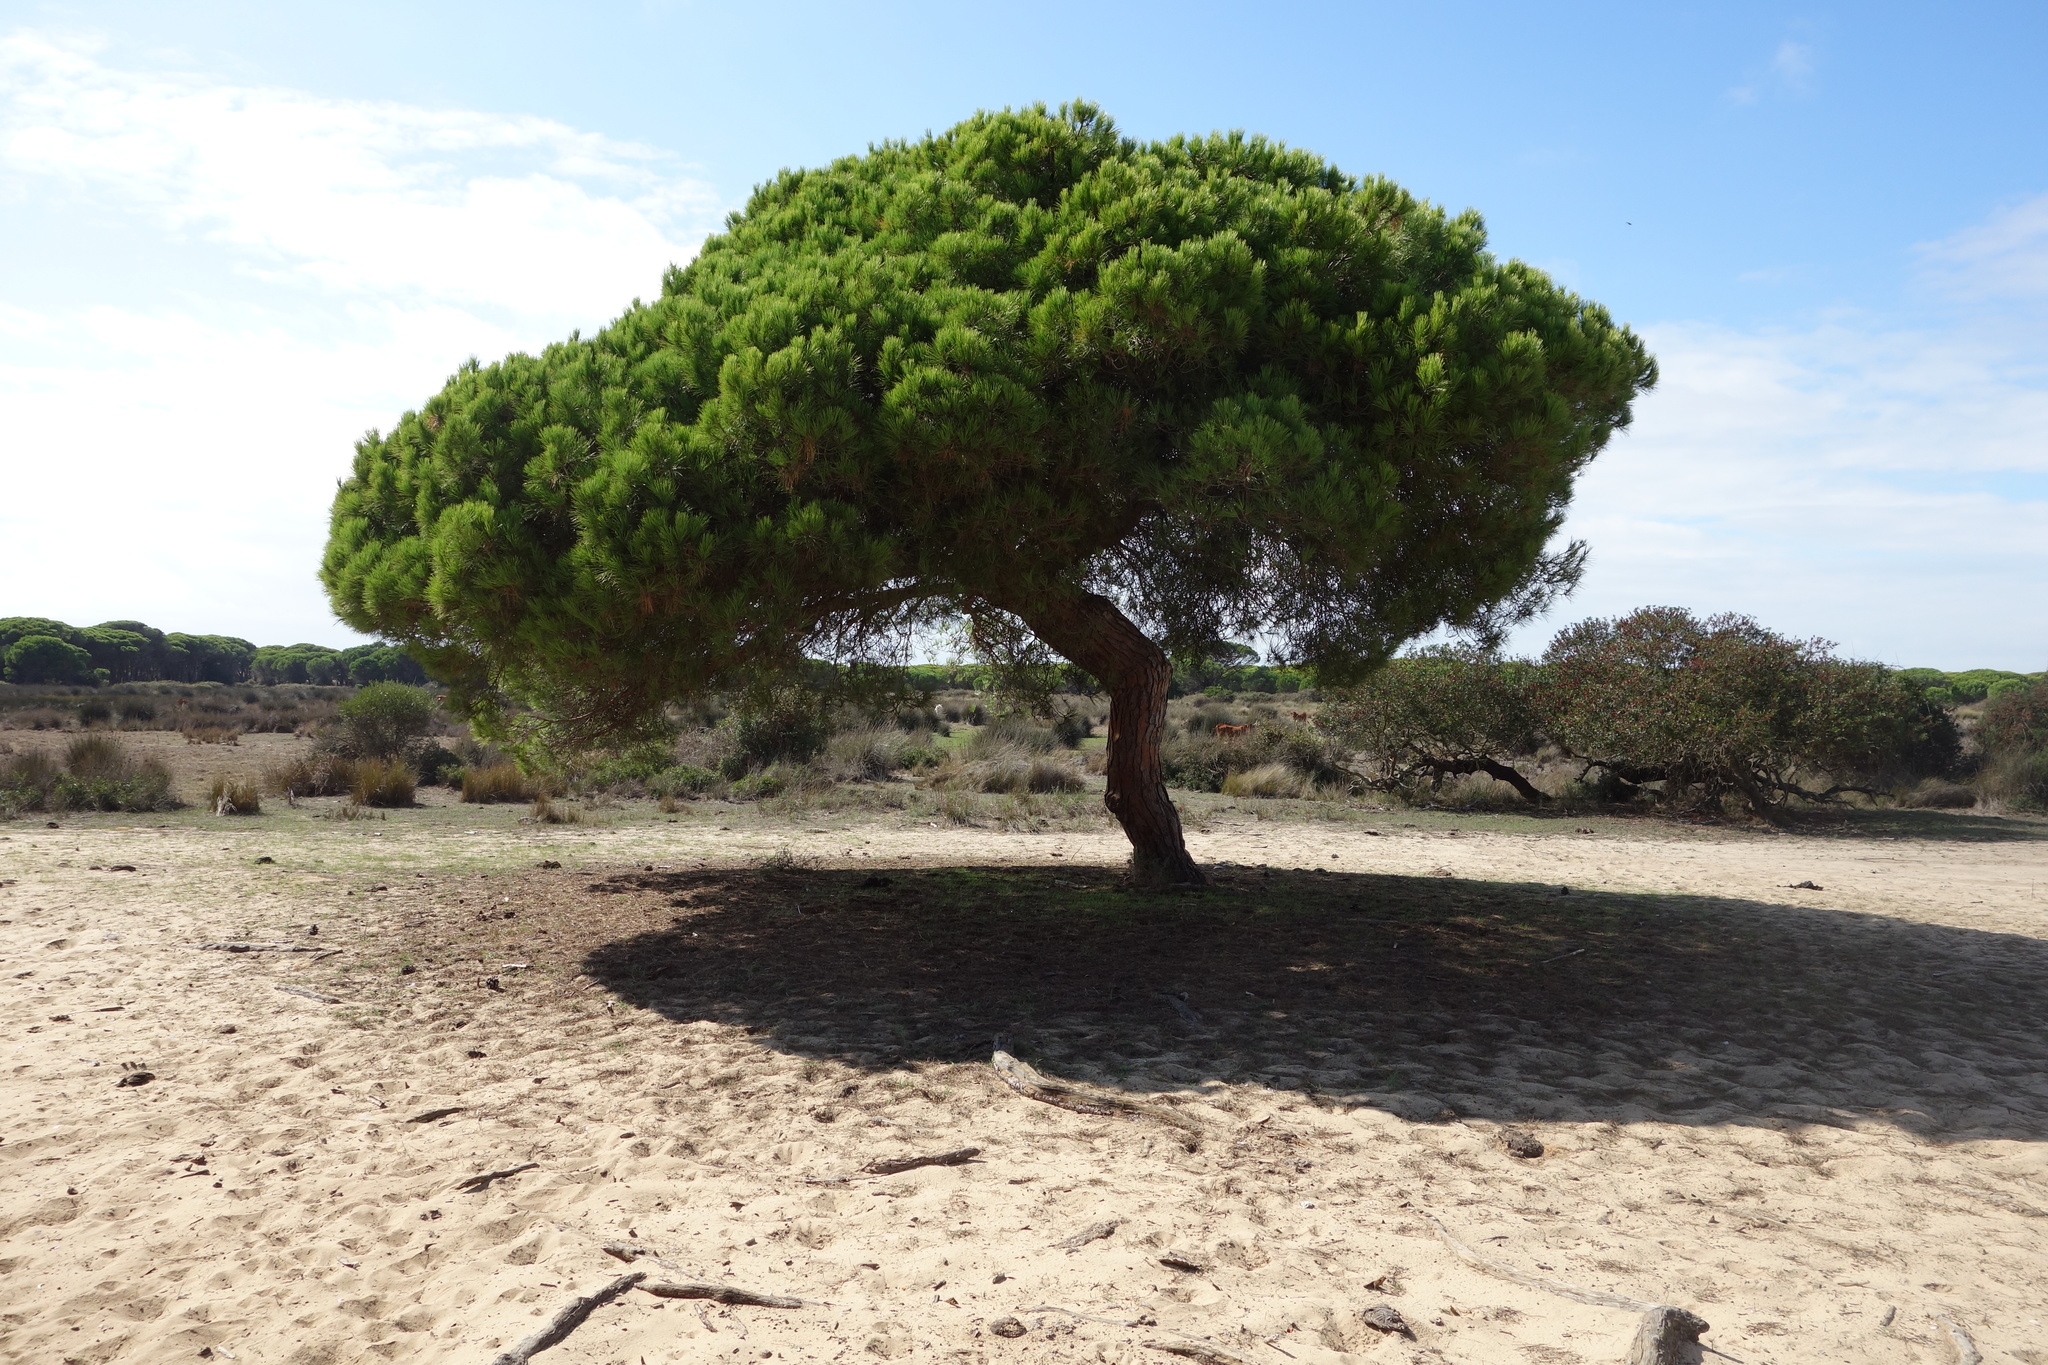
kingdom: Plantae
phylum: Tracheophyta
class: Pinopsida
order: Pinales
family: Pinaceae
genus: Pinus
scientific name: Pinus pinea
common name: Italian stone pine
